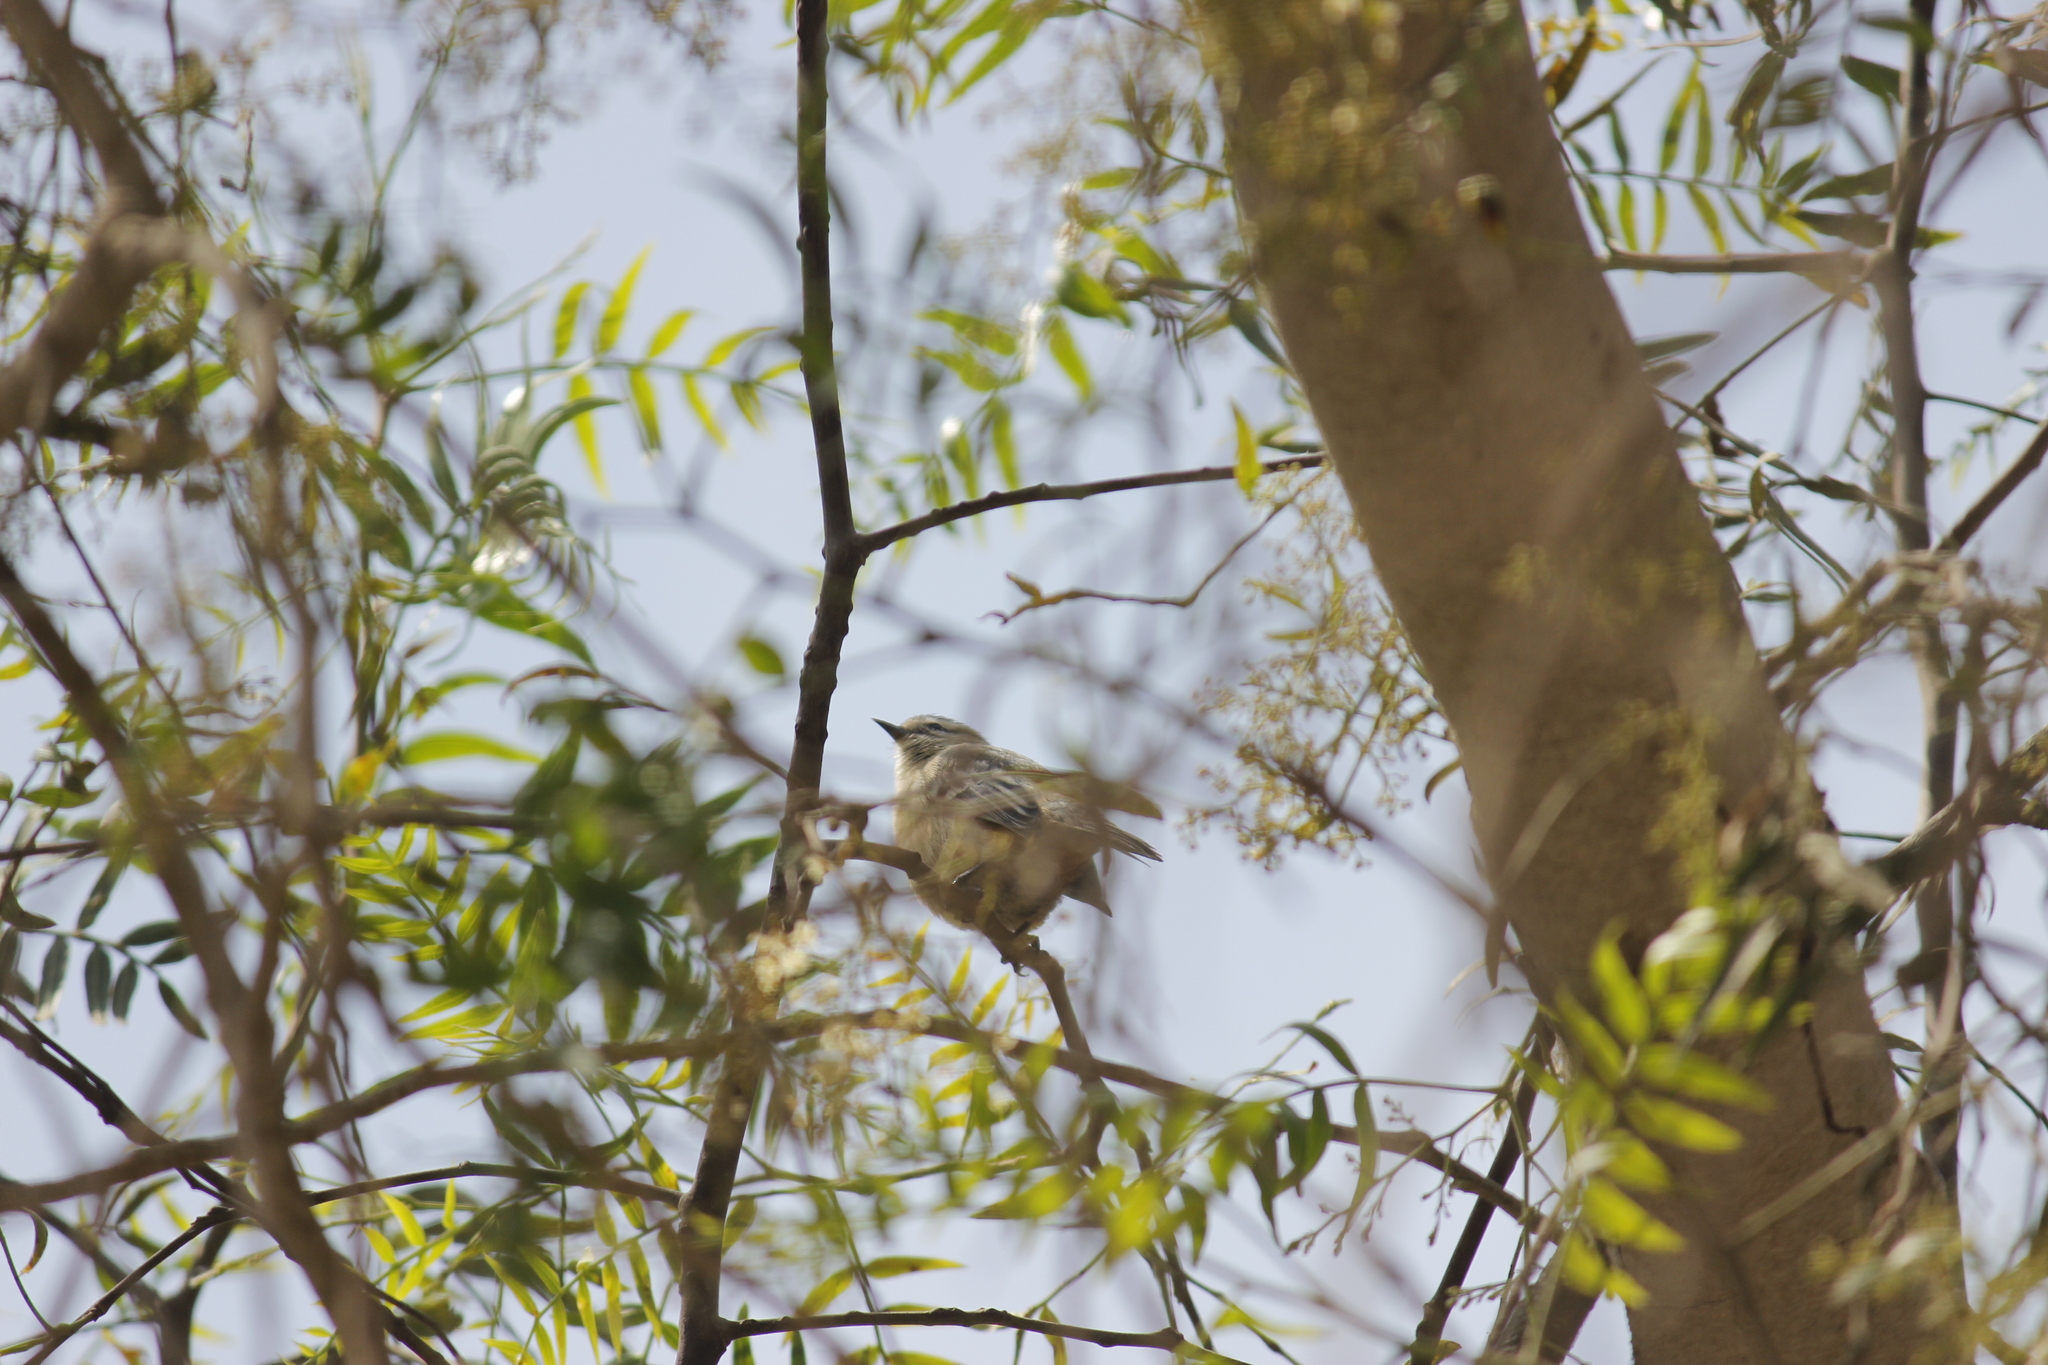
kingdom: Animalia
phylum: Chordata
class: Aves
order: Passeriformes
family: Thraupidae
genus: Conirostrum
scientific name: Conirostrum cinereum
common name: Cinereous conebill
